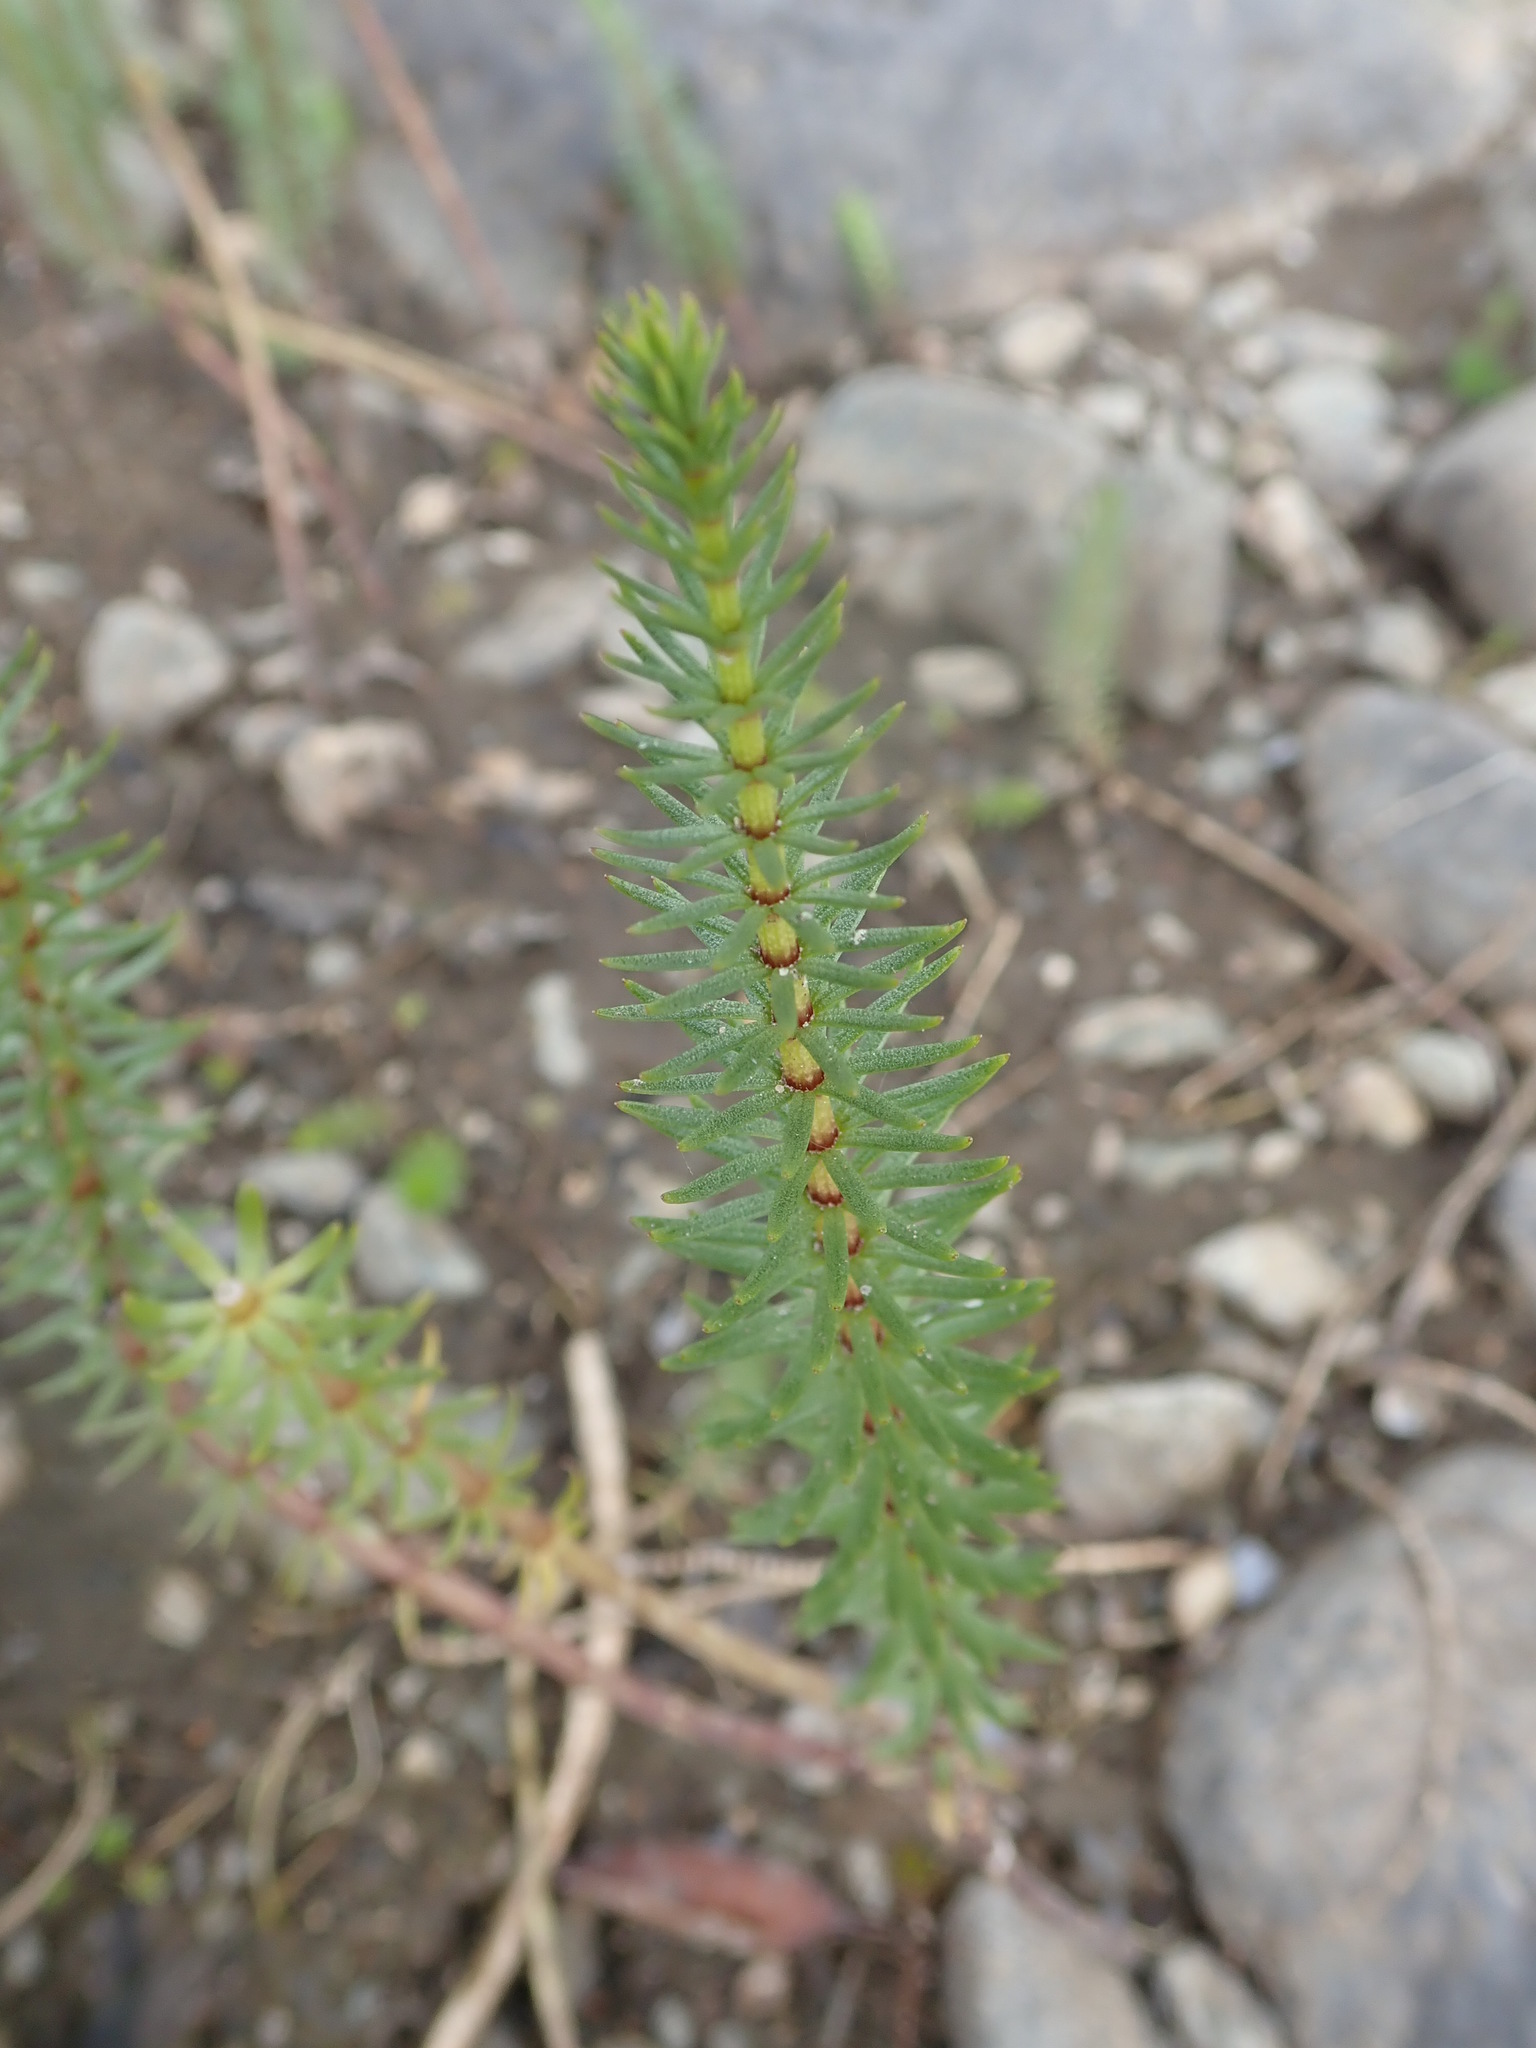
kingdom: Plantae
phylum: Tracheophyta
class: Magnoliopsida
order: Lamiales
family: Plantaginaceae
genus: Hippuris
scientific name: Hippuris vulgaris
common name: Mare's-tail
